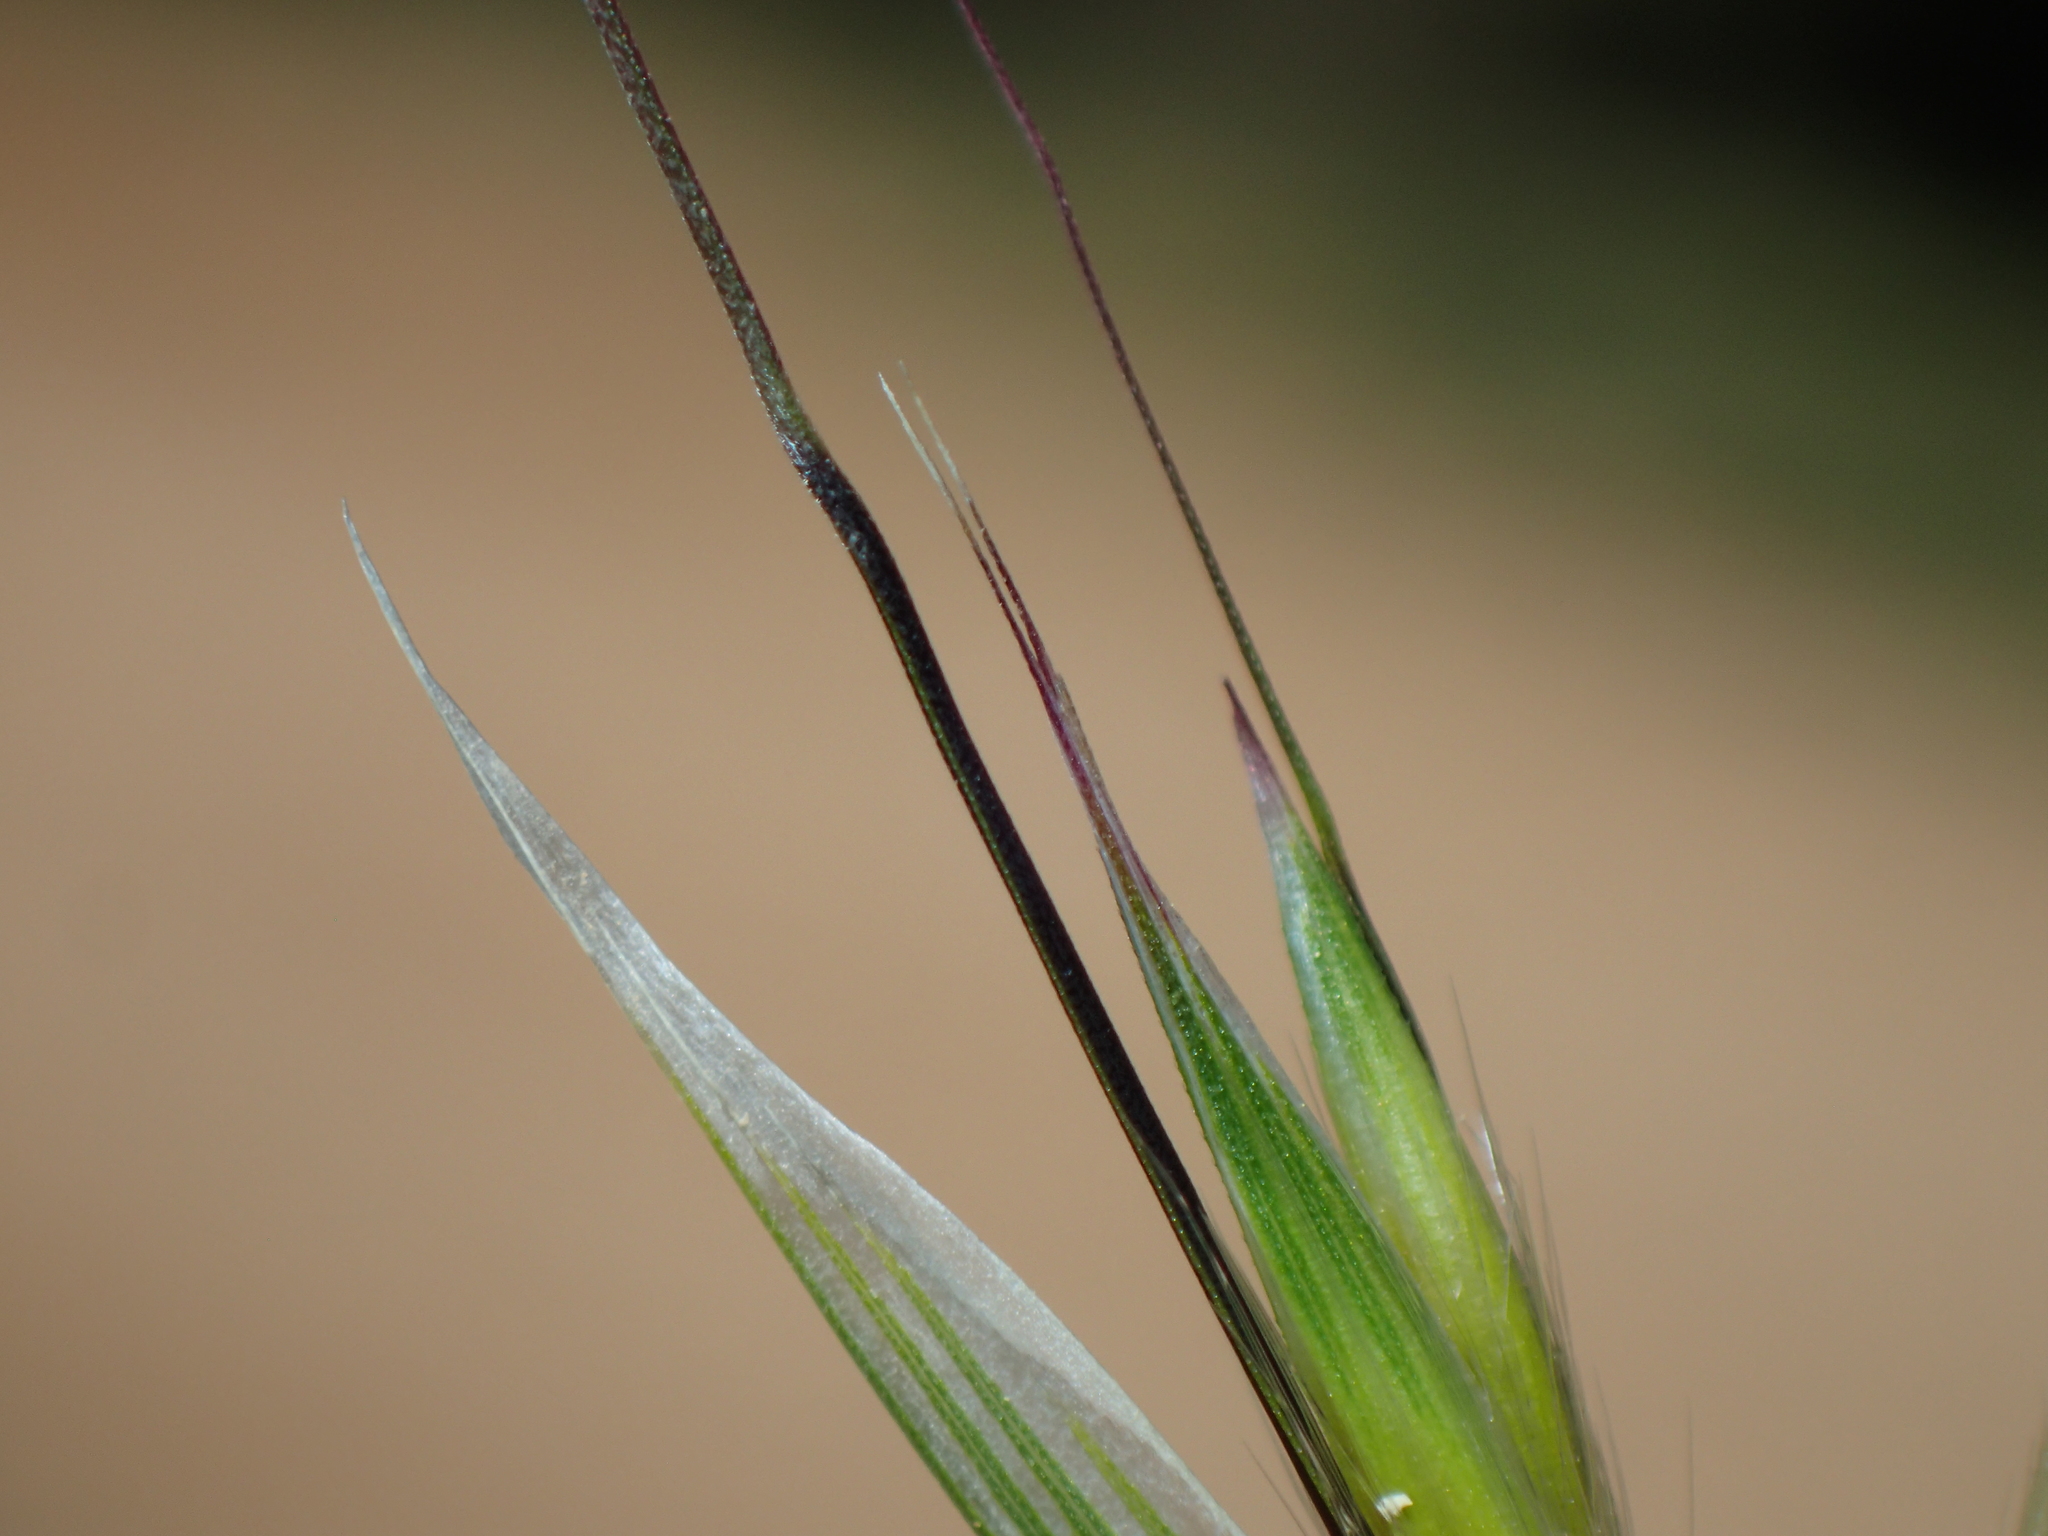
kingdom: Plantae
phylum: Tracheophyta
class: Liliopsida
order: Poales
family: Poaceae
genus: Avena
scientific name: Avena barbata
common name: Slender oat
